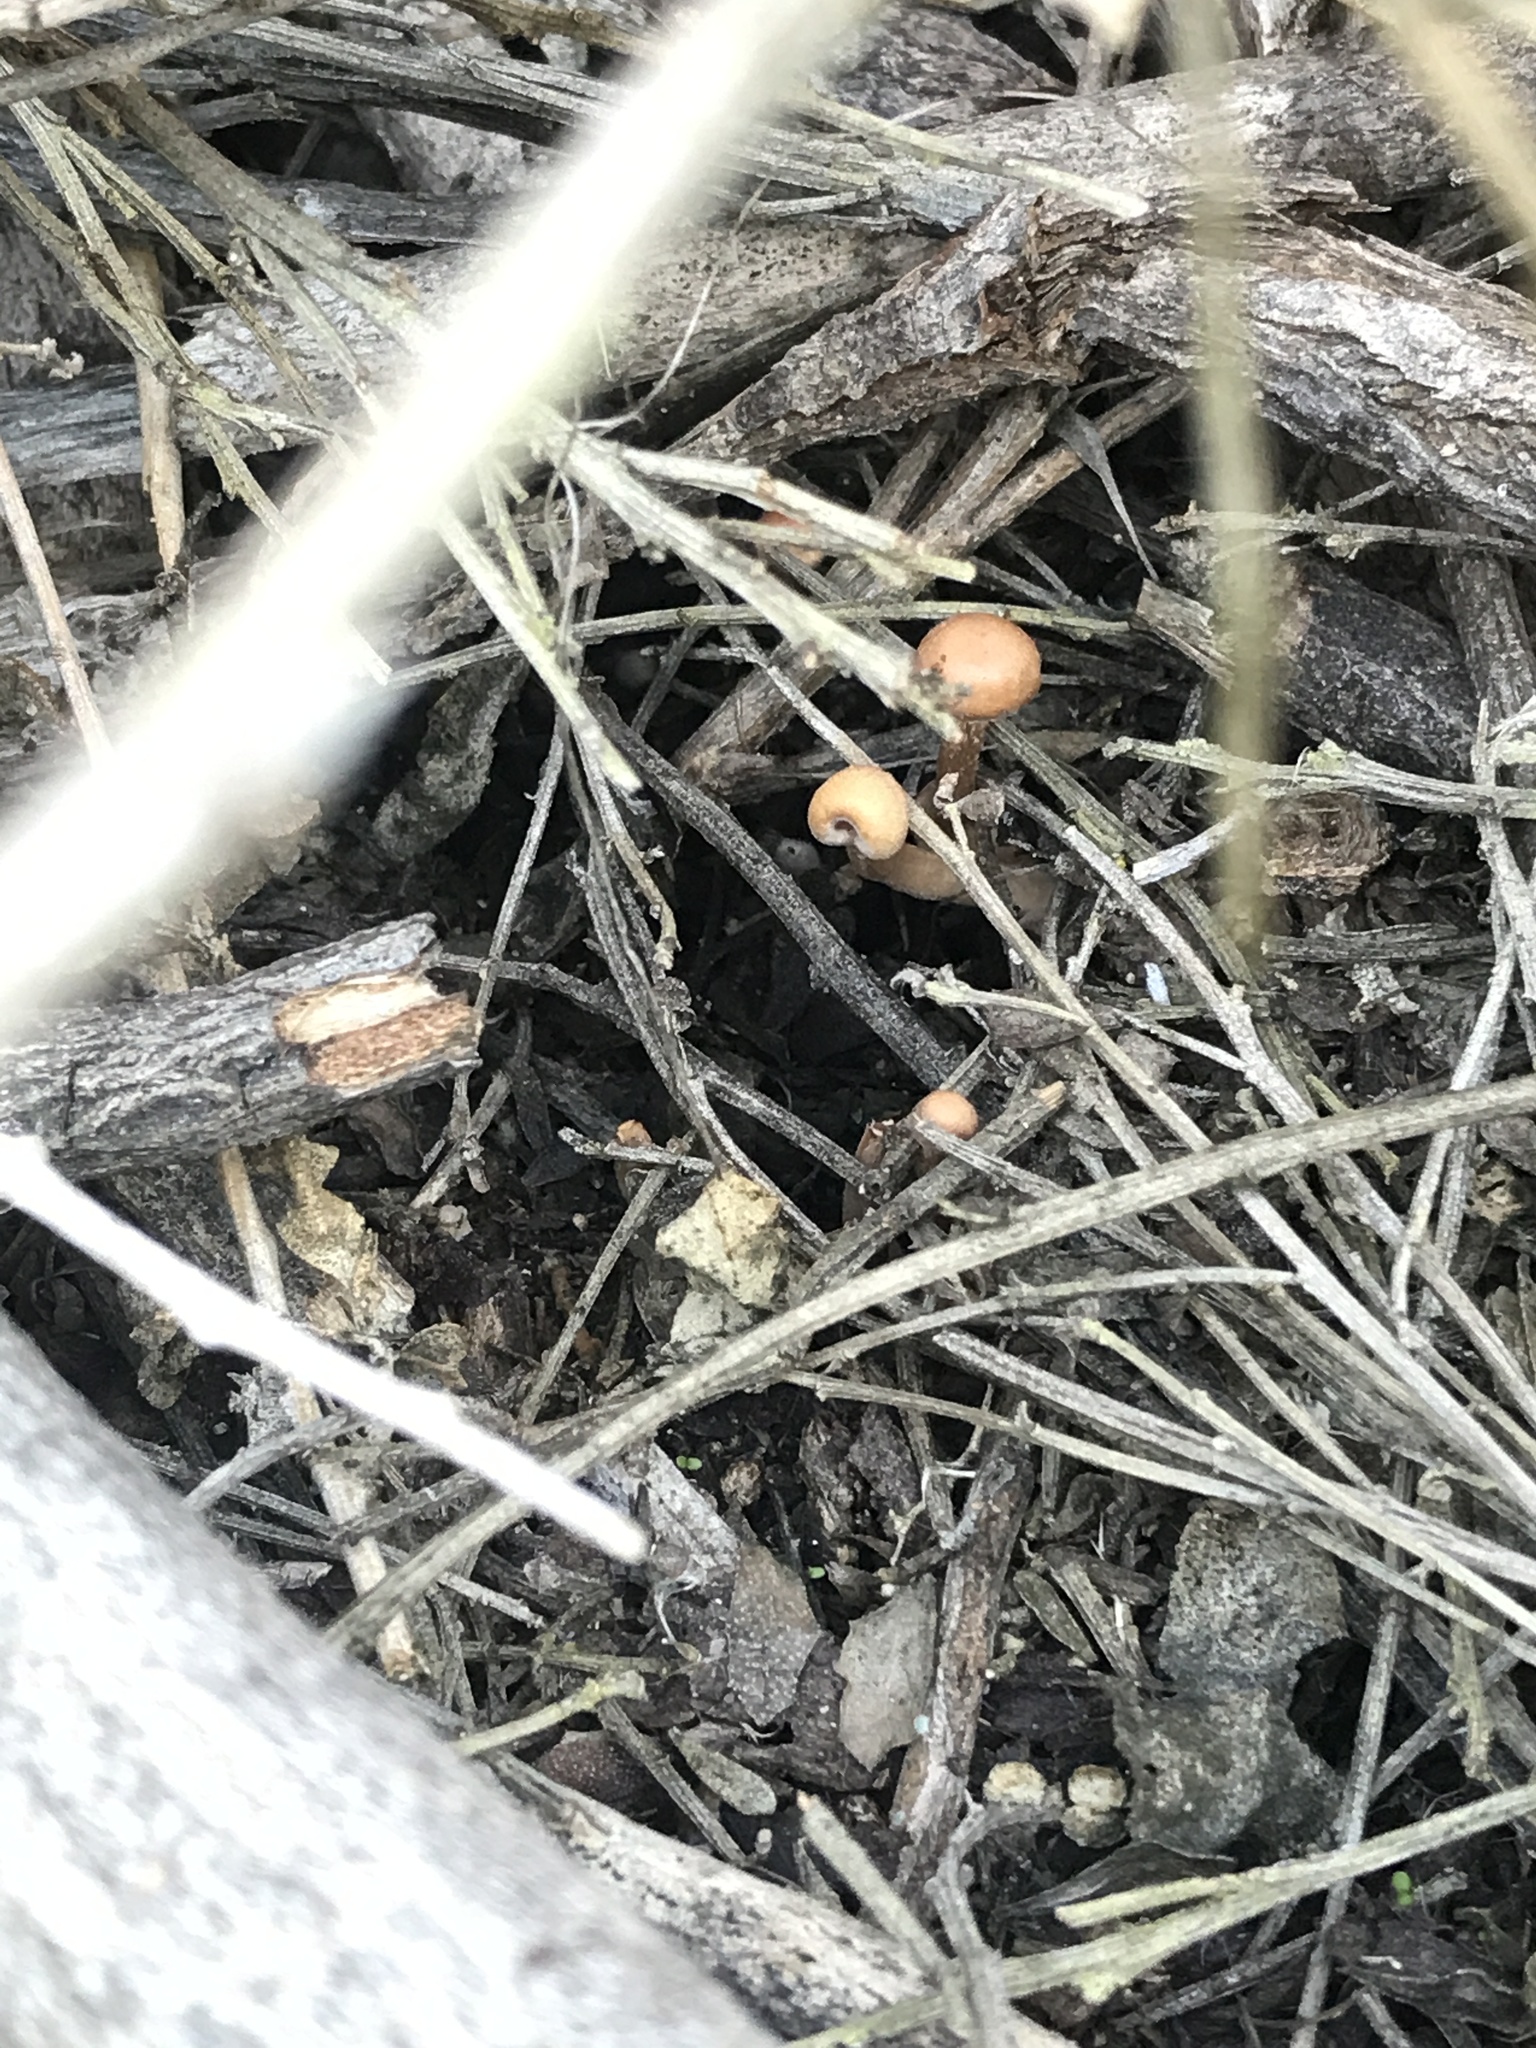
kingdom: Fungi
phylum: Basidiomycota
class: Agaricomycetes
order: Agaricales
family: Tubariaceae
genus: Tubaria
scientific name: Tubaria furfuracea
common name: Scurfy twiglet
